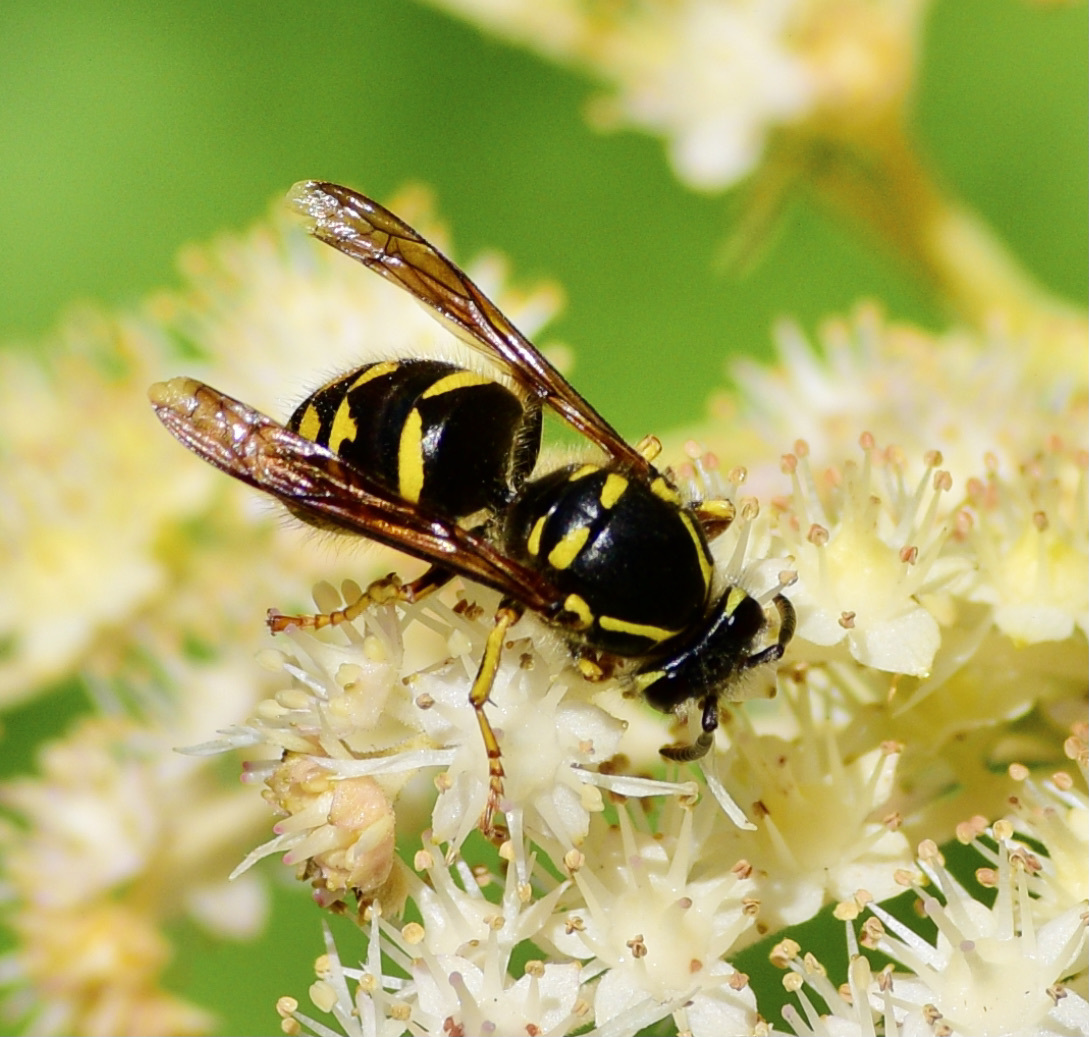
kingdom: Animalia
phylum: Arthropoda
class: Insecta
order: Hymenoptera
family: Vespidae
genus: Dolichovespula
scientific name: Dolichovespula arenaria
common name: Aerial yellowjacket
